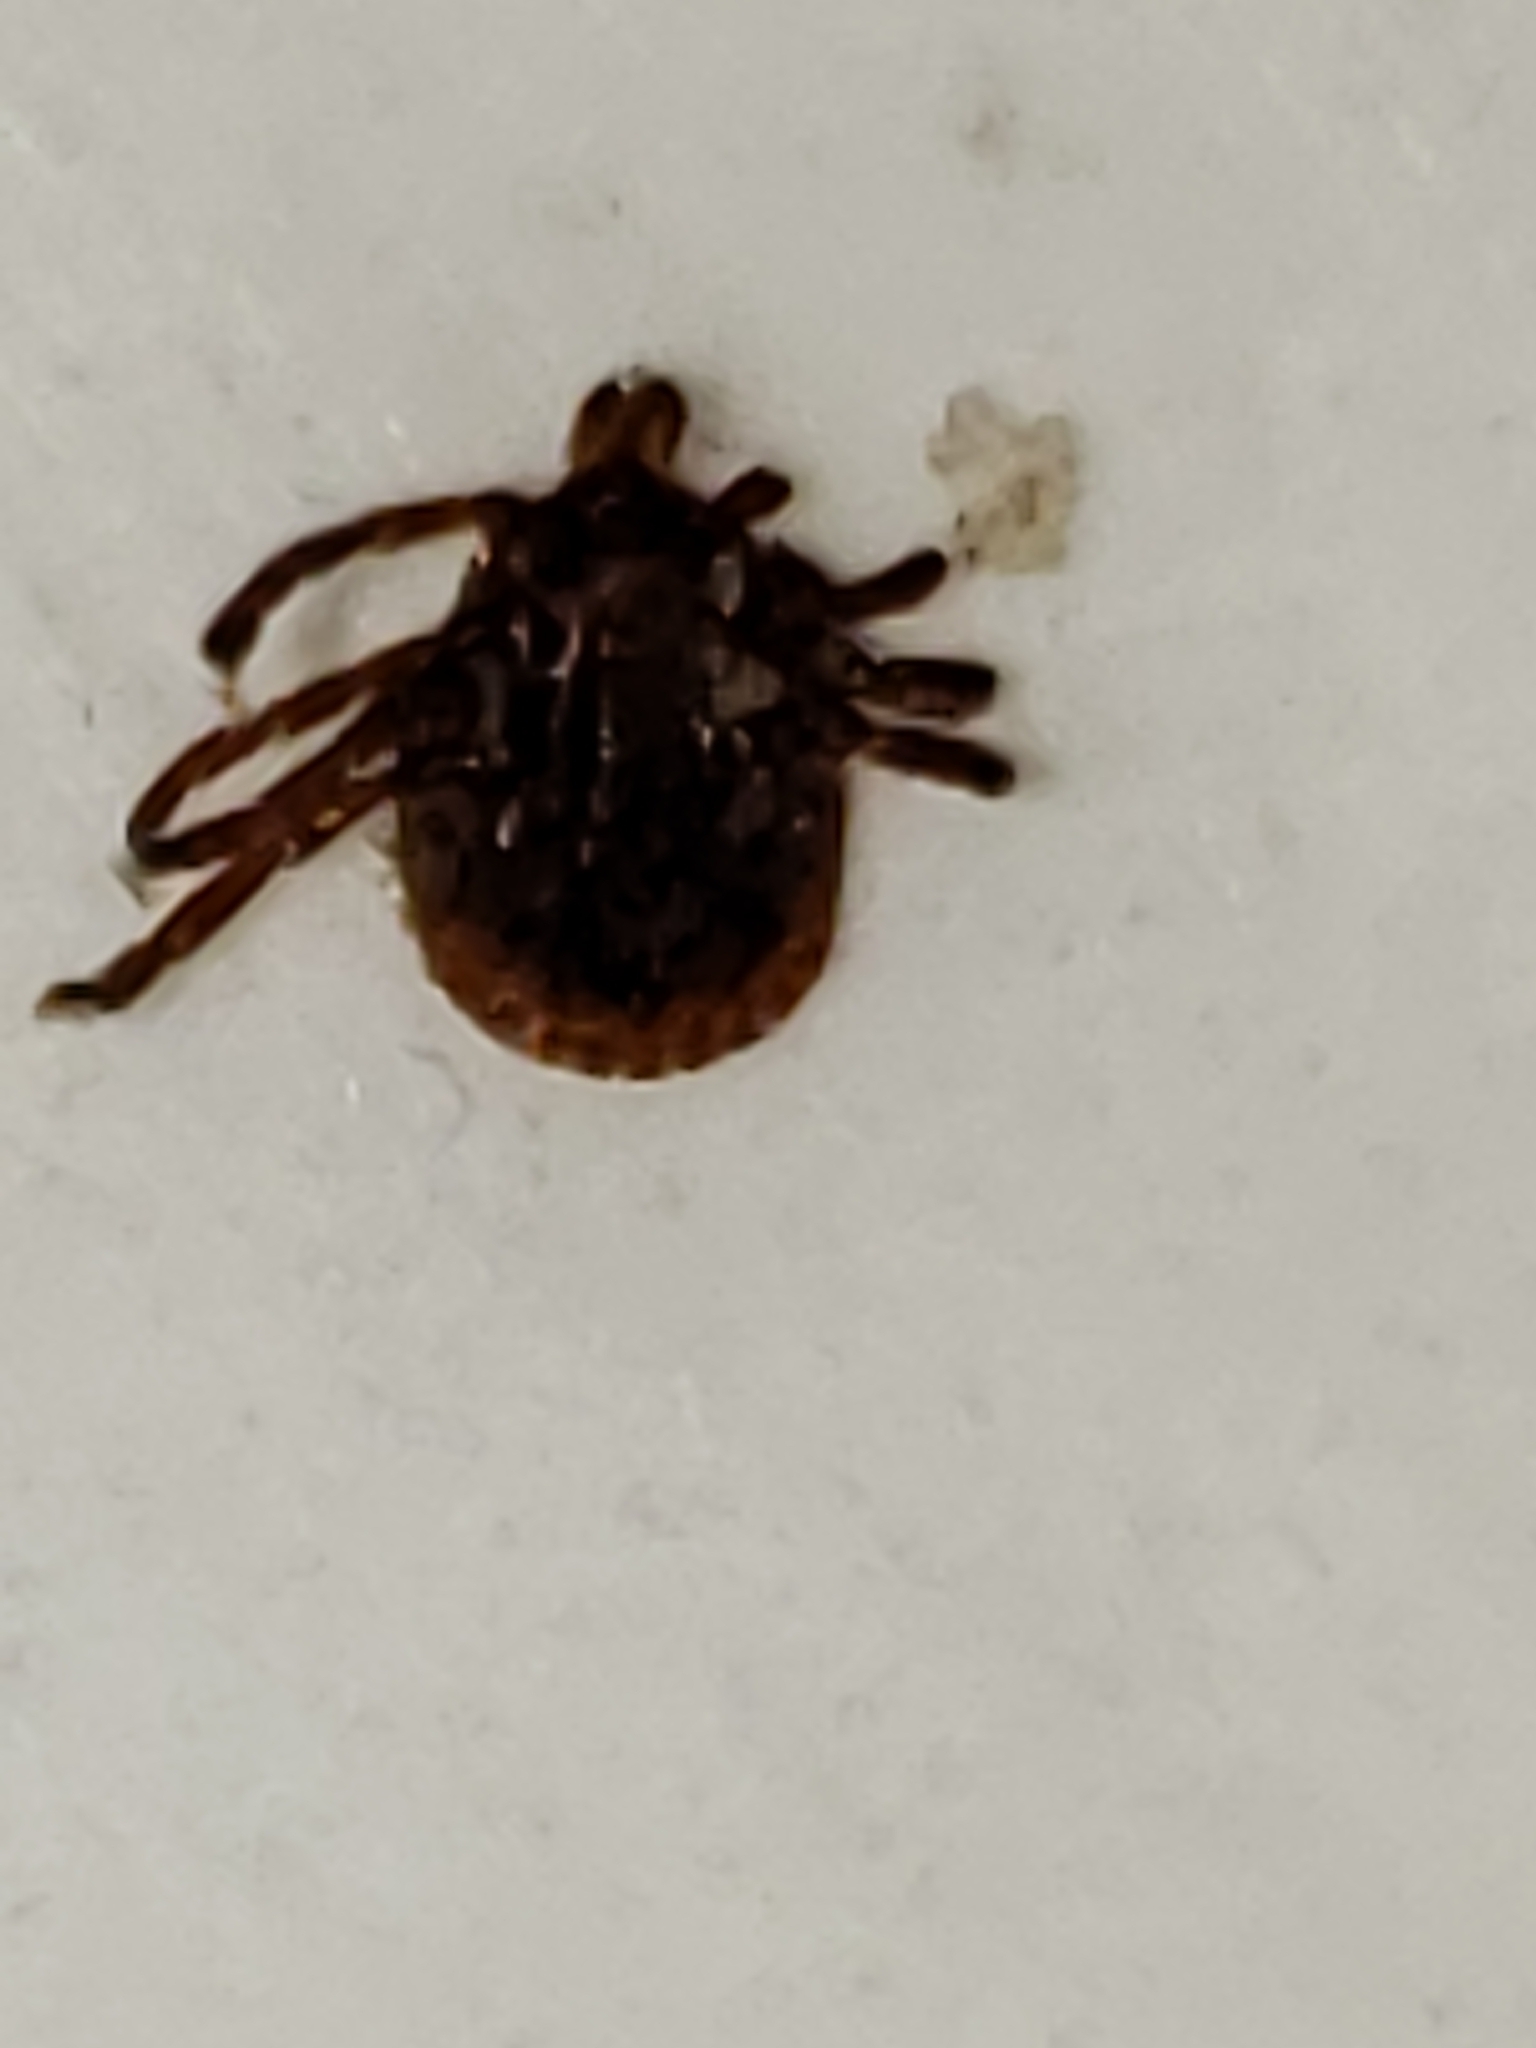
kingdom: Animalia
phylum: Arthropoda
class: Arachnida
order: Ixodida
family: Ixodidae
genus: Amblyomma
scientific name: Amblyomma americanum
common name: Lone star tick
